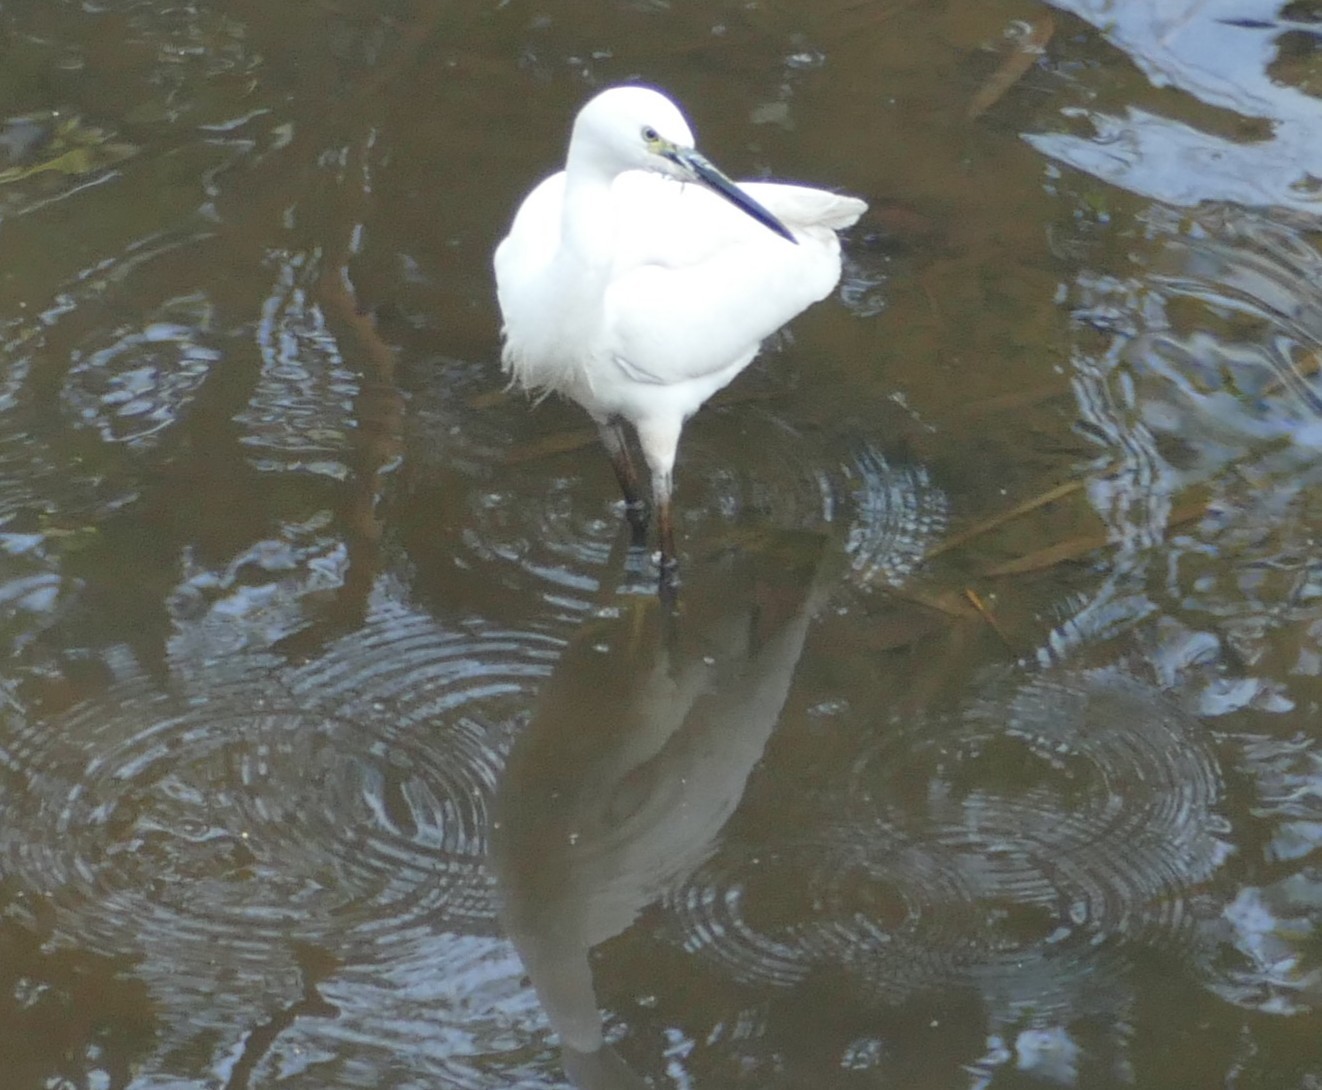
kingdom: Animalia
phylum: Chordata
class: Aves
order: Pelecaniformes
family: Ardeidae
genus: Egretta
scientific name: Egretta garzetta
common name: Little egret
